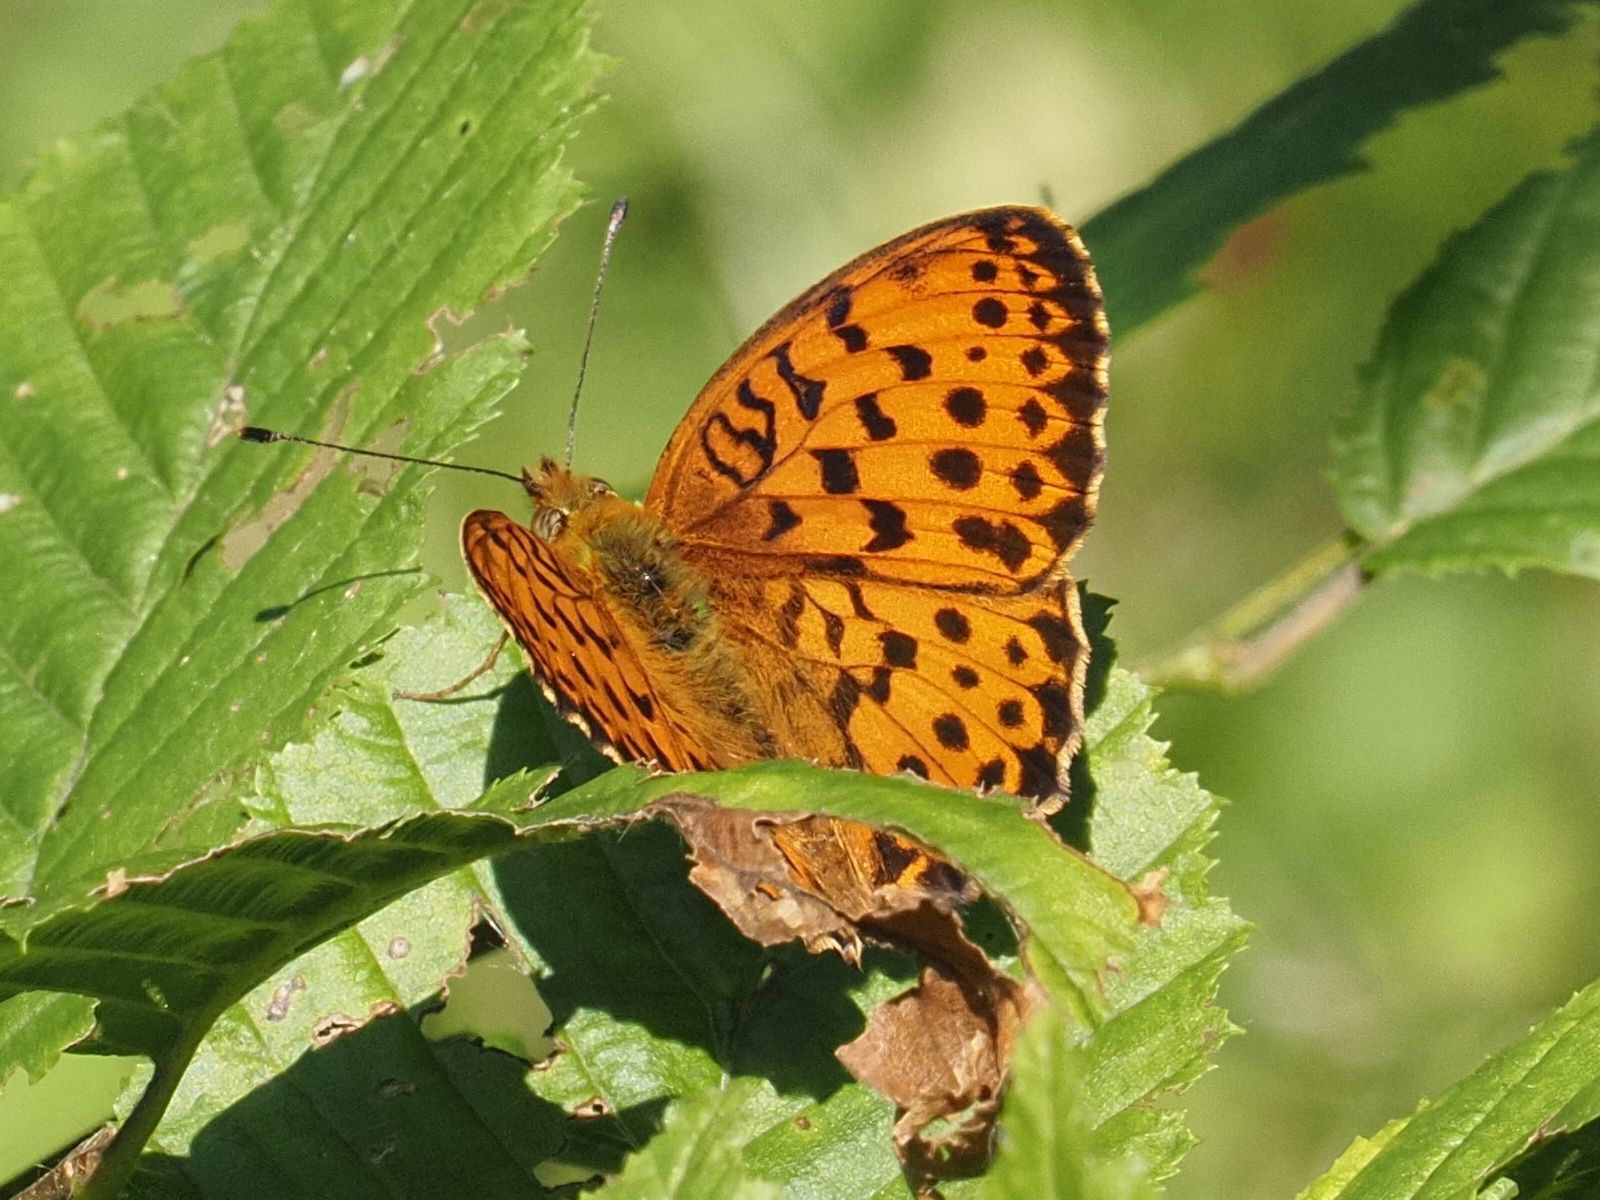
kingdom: Animalia
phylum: Arthropoda
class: Insecta
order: Lepidoptera
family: Nymphalidae
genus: Brenthis
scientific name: Brenthis daphne
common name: Marbled fritillary
